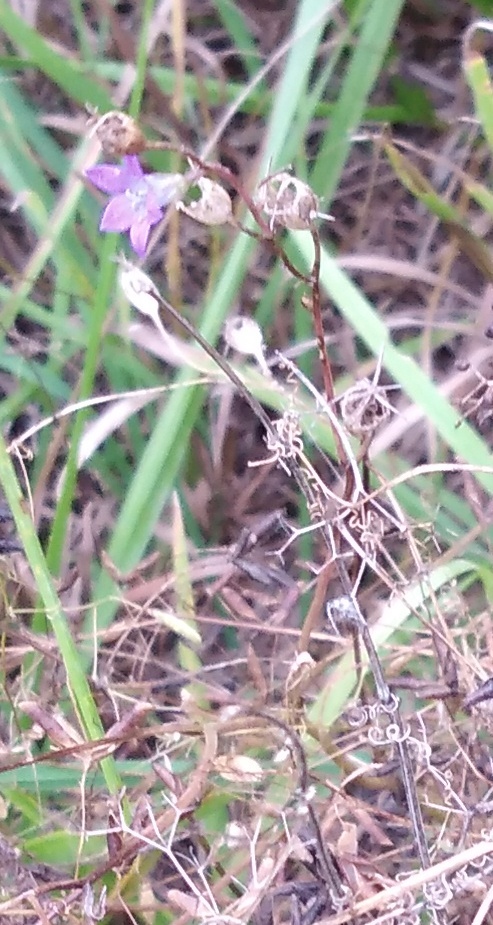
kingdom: Plantae
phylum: Tracheophyta
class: Magnoliopsida
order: Asterales
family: Campanulaceae
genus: Campanula
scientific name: Campanula patula
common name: Spreading bellflower
